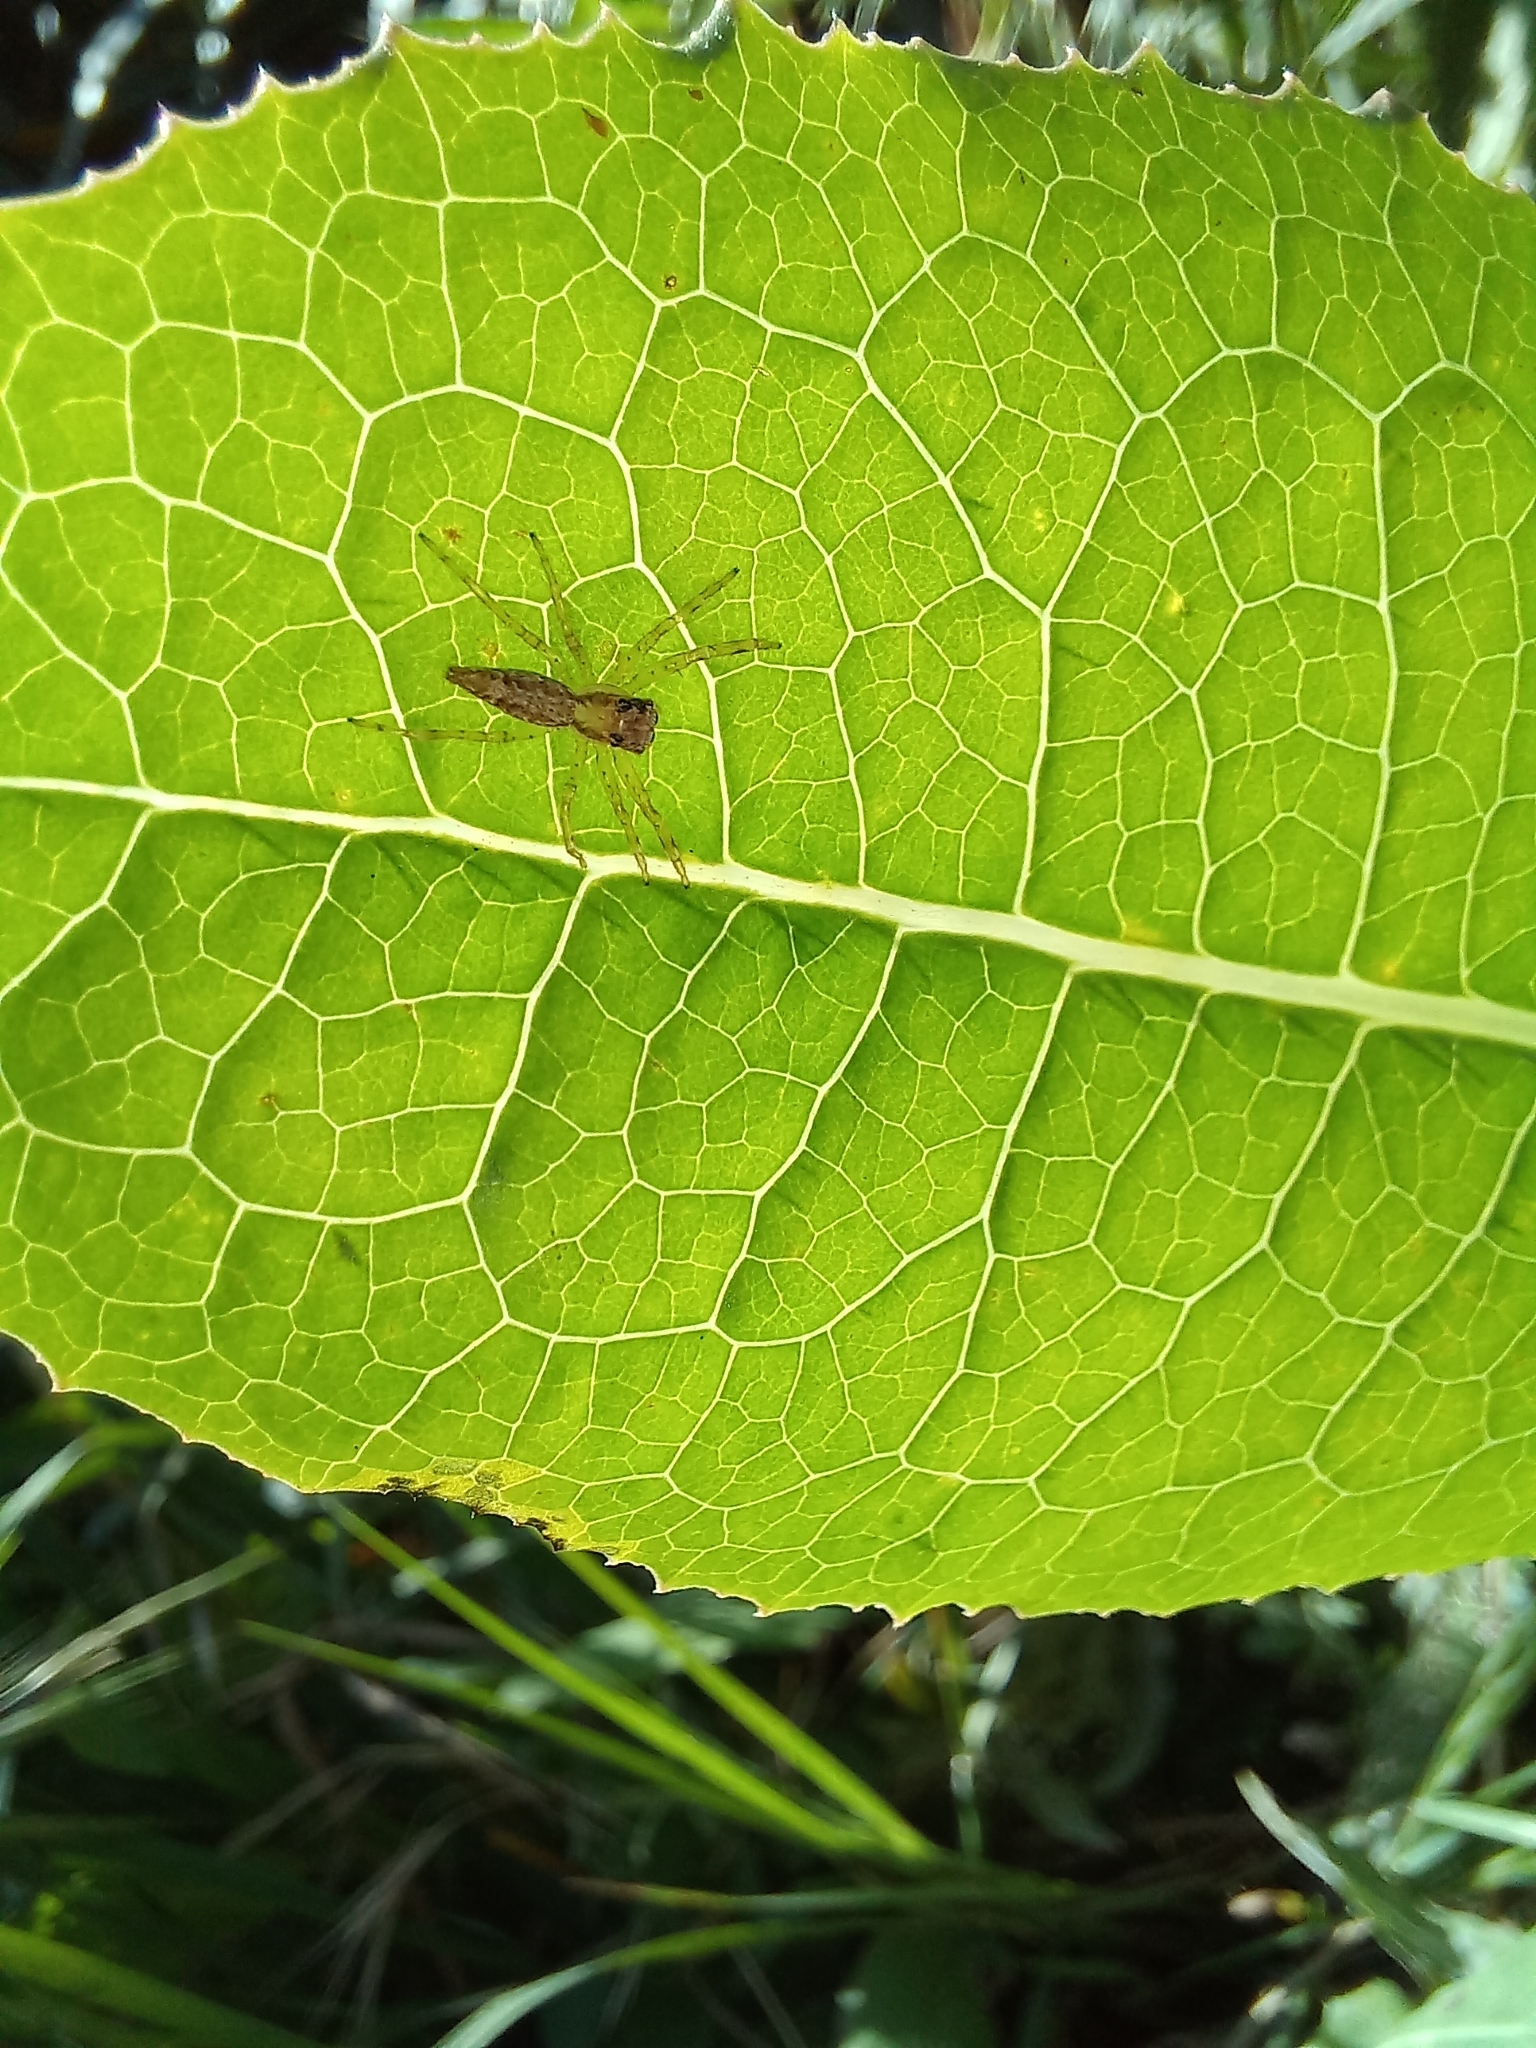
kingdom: Animalia
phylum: Arthropoda
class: Arachnida
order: Araneae
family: Salticidae
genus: Helpis
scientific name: Helpis minitabunda
